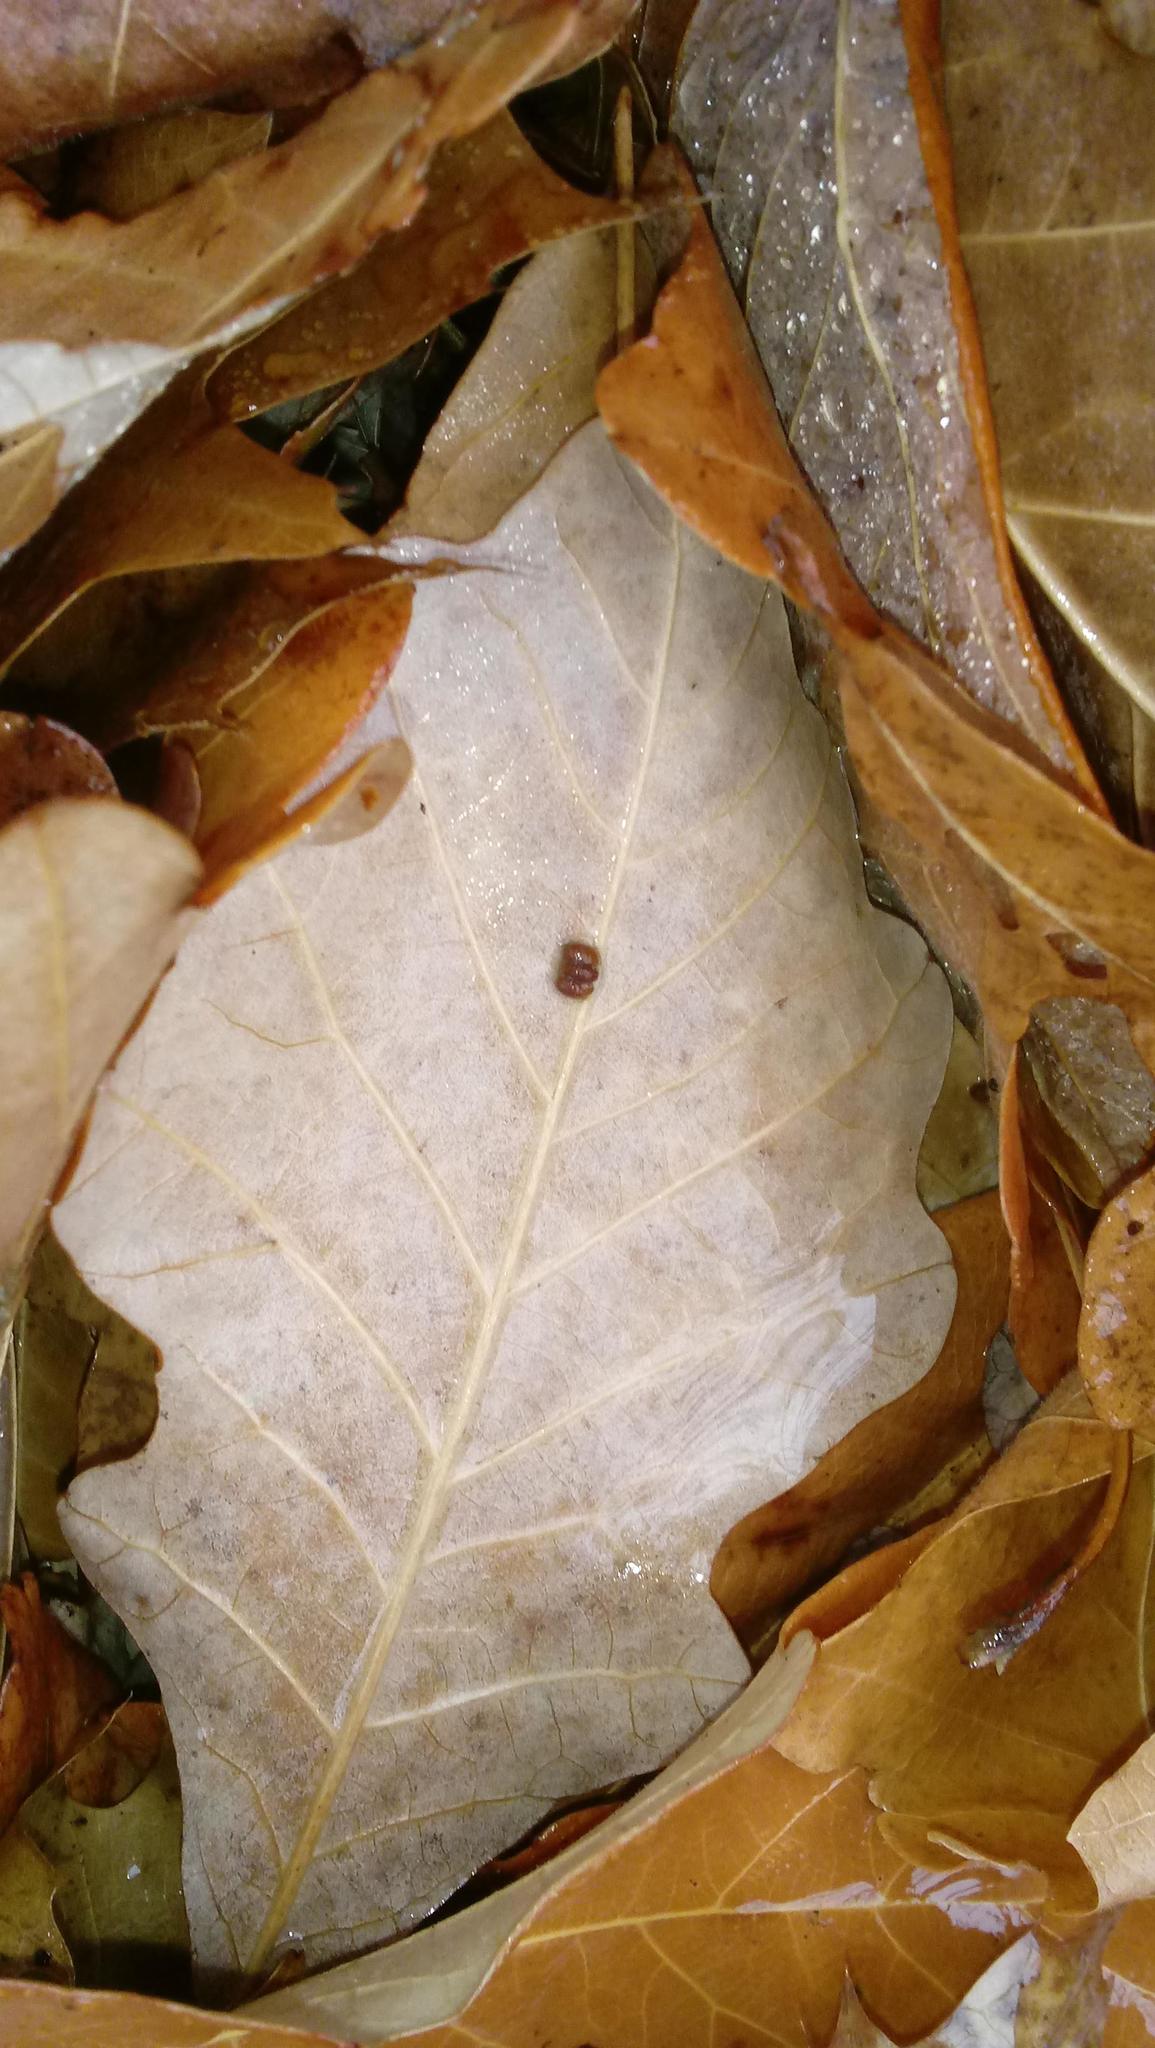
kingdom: Animalia
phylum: Arthropoda
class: Insecta
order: Hymenoptera
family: Cynipidae
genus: Andricus
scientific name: Andricus Druon ignotum
